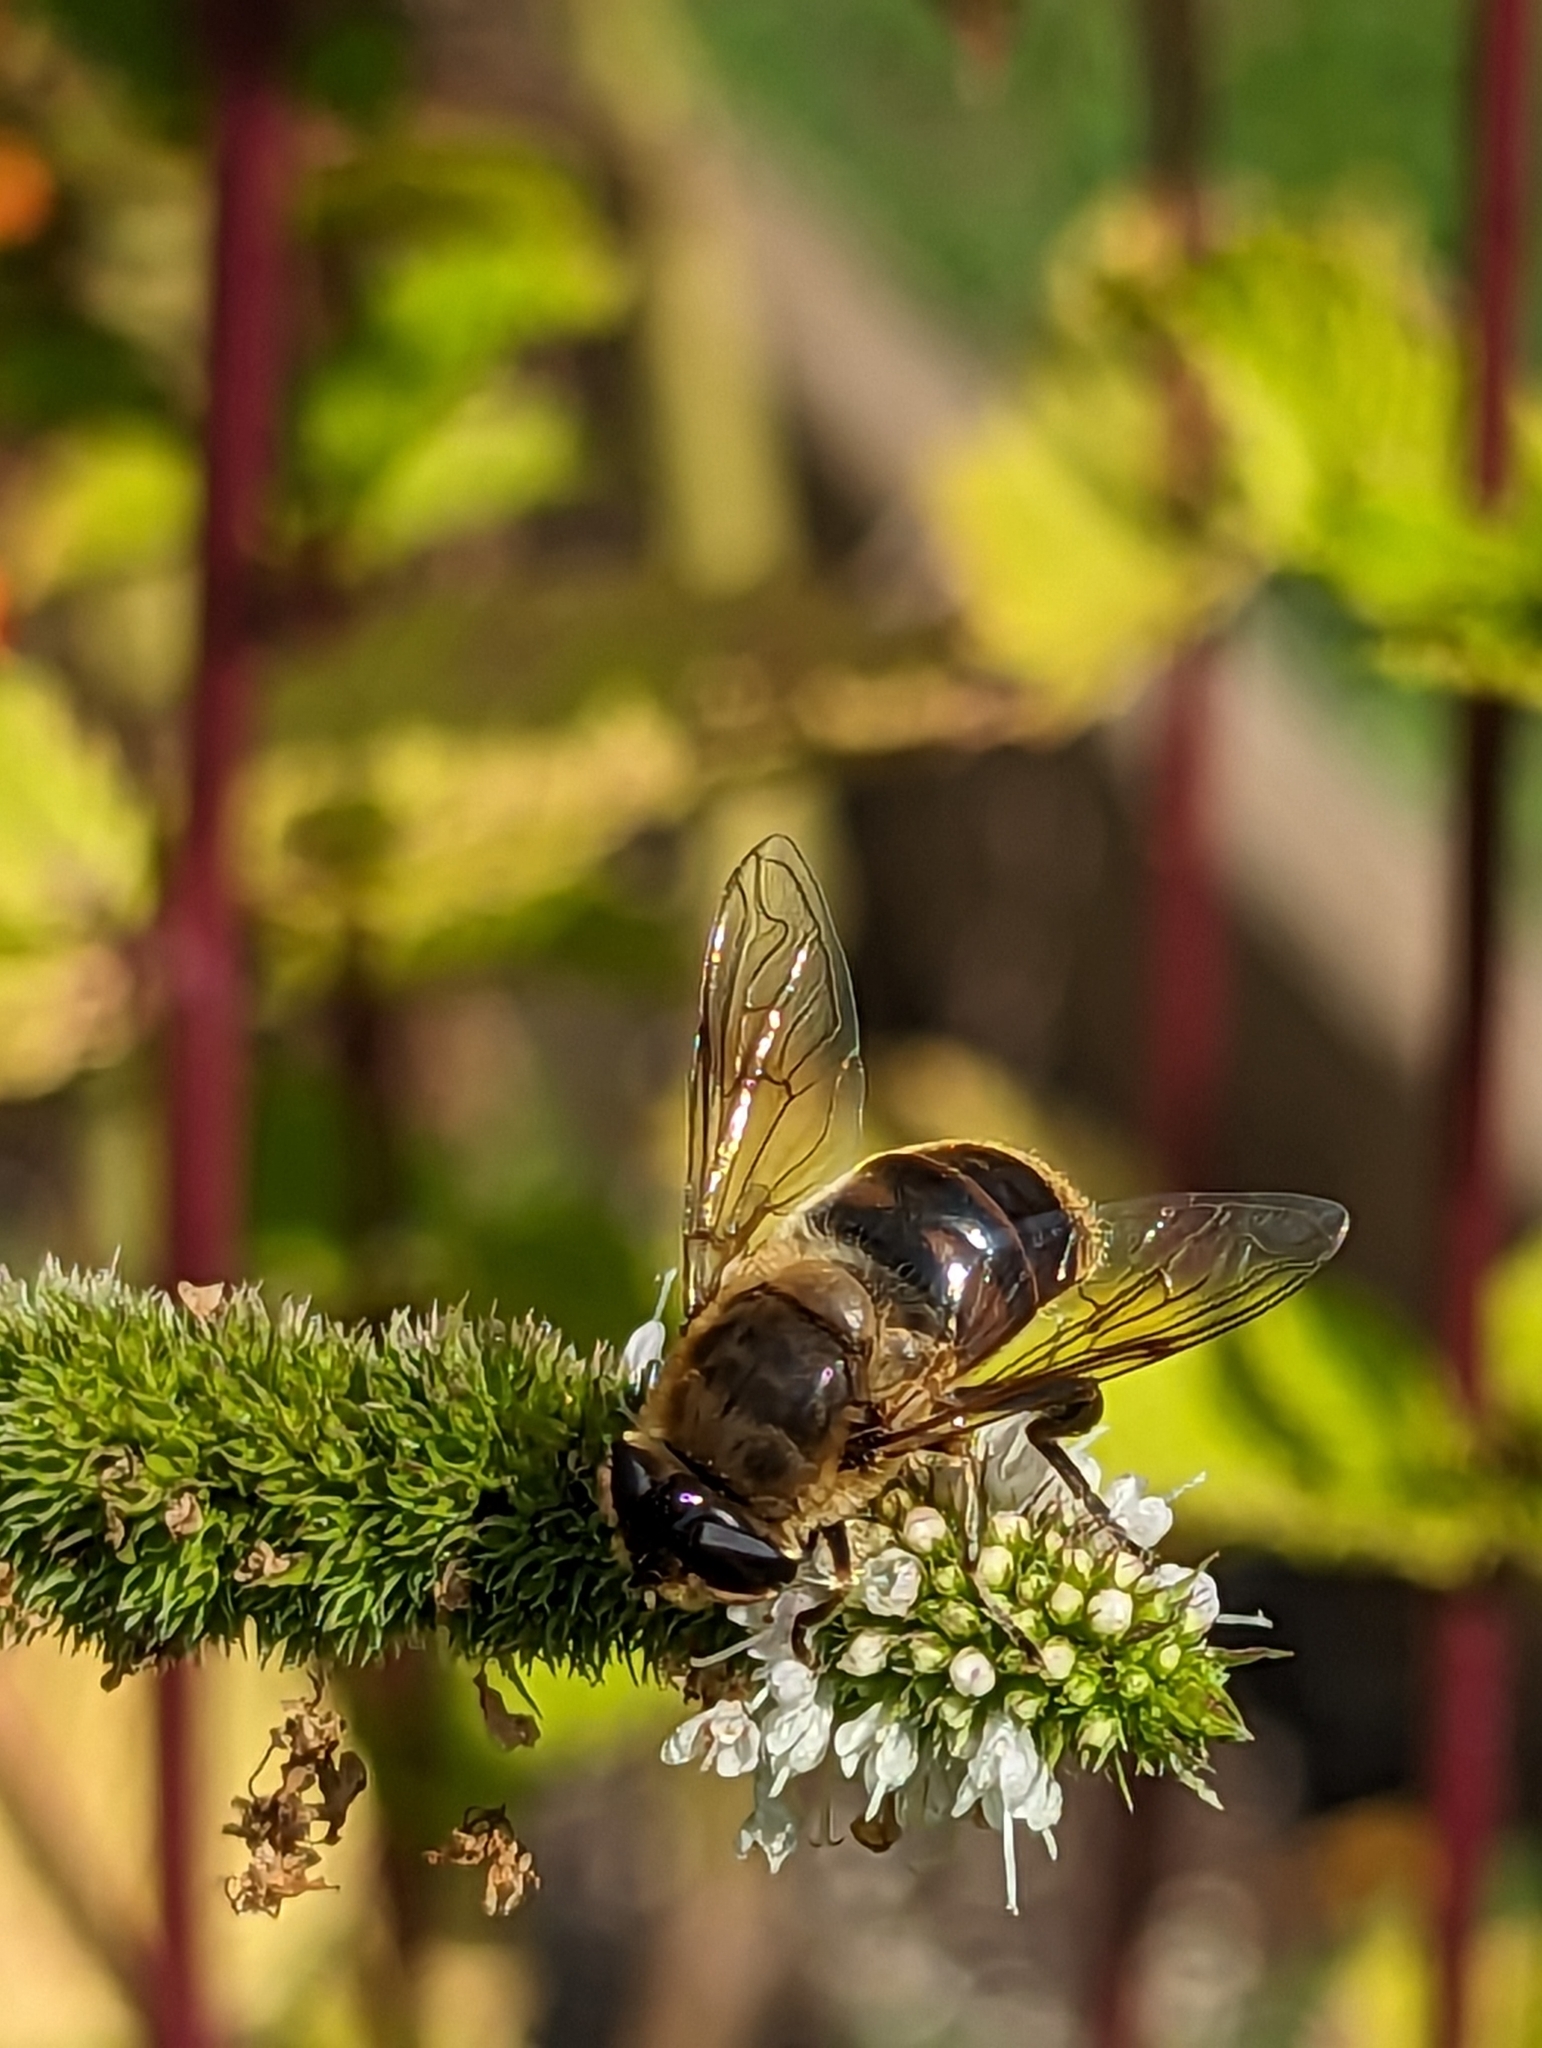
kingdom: Animalia
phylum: Arthropoda
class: Insecta
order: Diptera
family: Syrphidae
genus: Eristalis
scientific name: Eristalis tenax
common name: Drone fly
